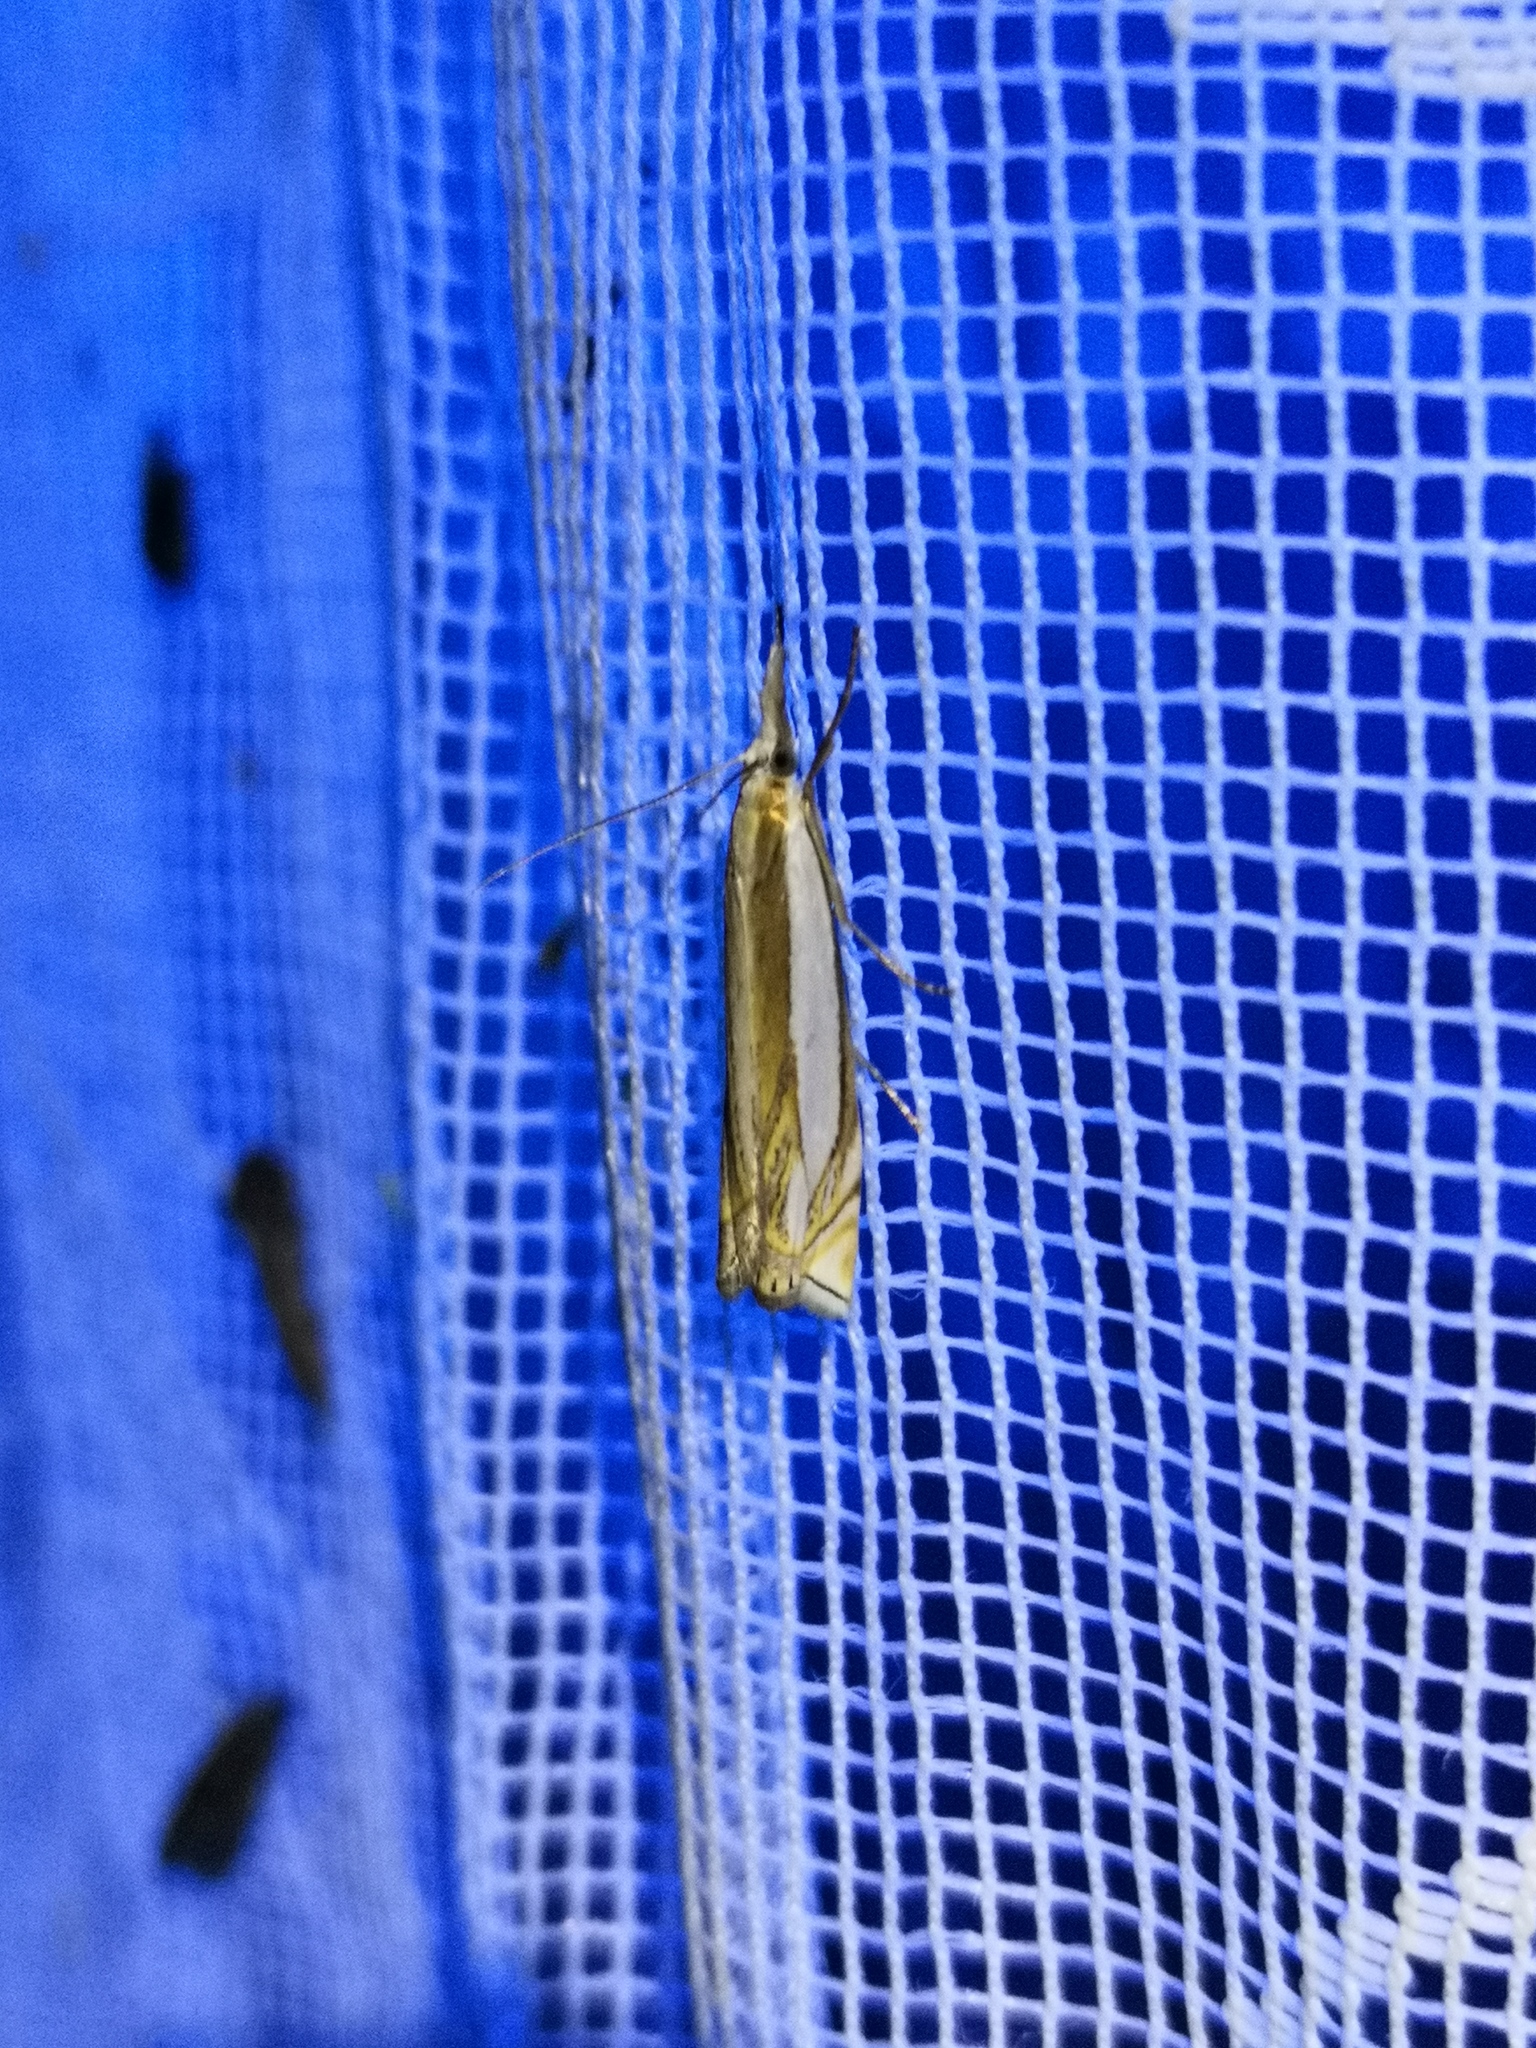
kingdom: Animalia
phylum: Arthropoda
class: Insecta
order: Lepidoptera
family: Crambidae
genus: Crambus
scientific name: Crambus pascuella
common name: Inlaid grass-veneer
